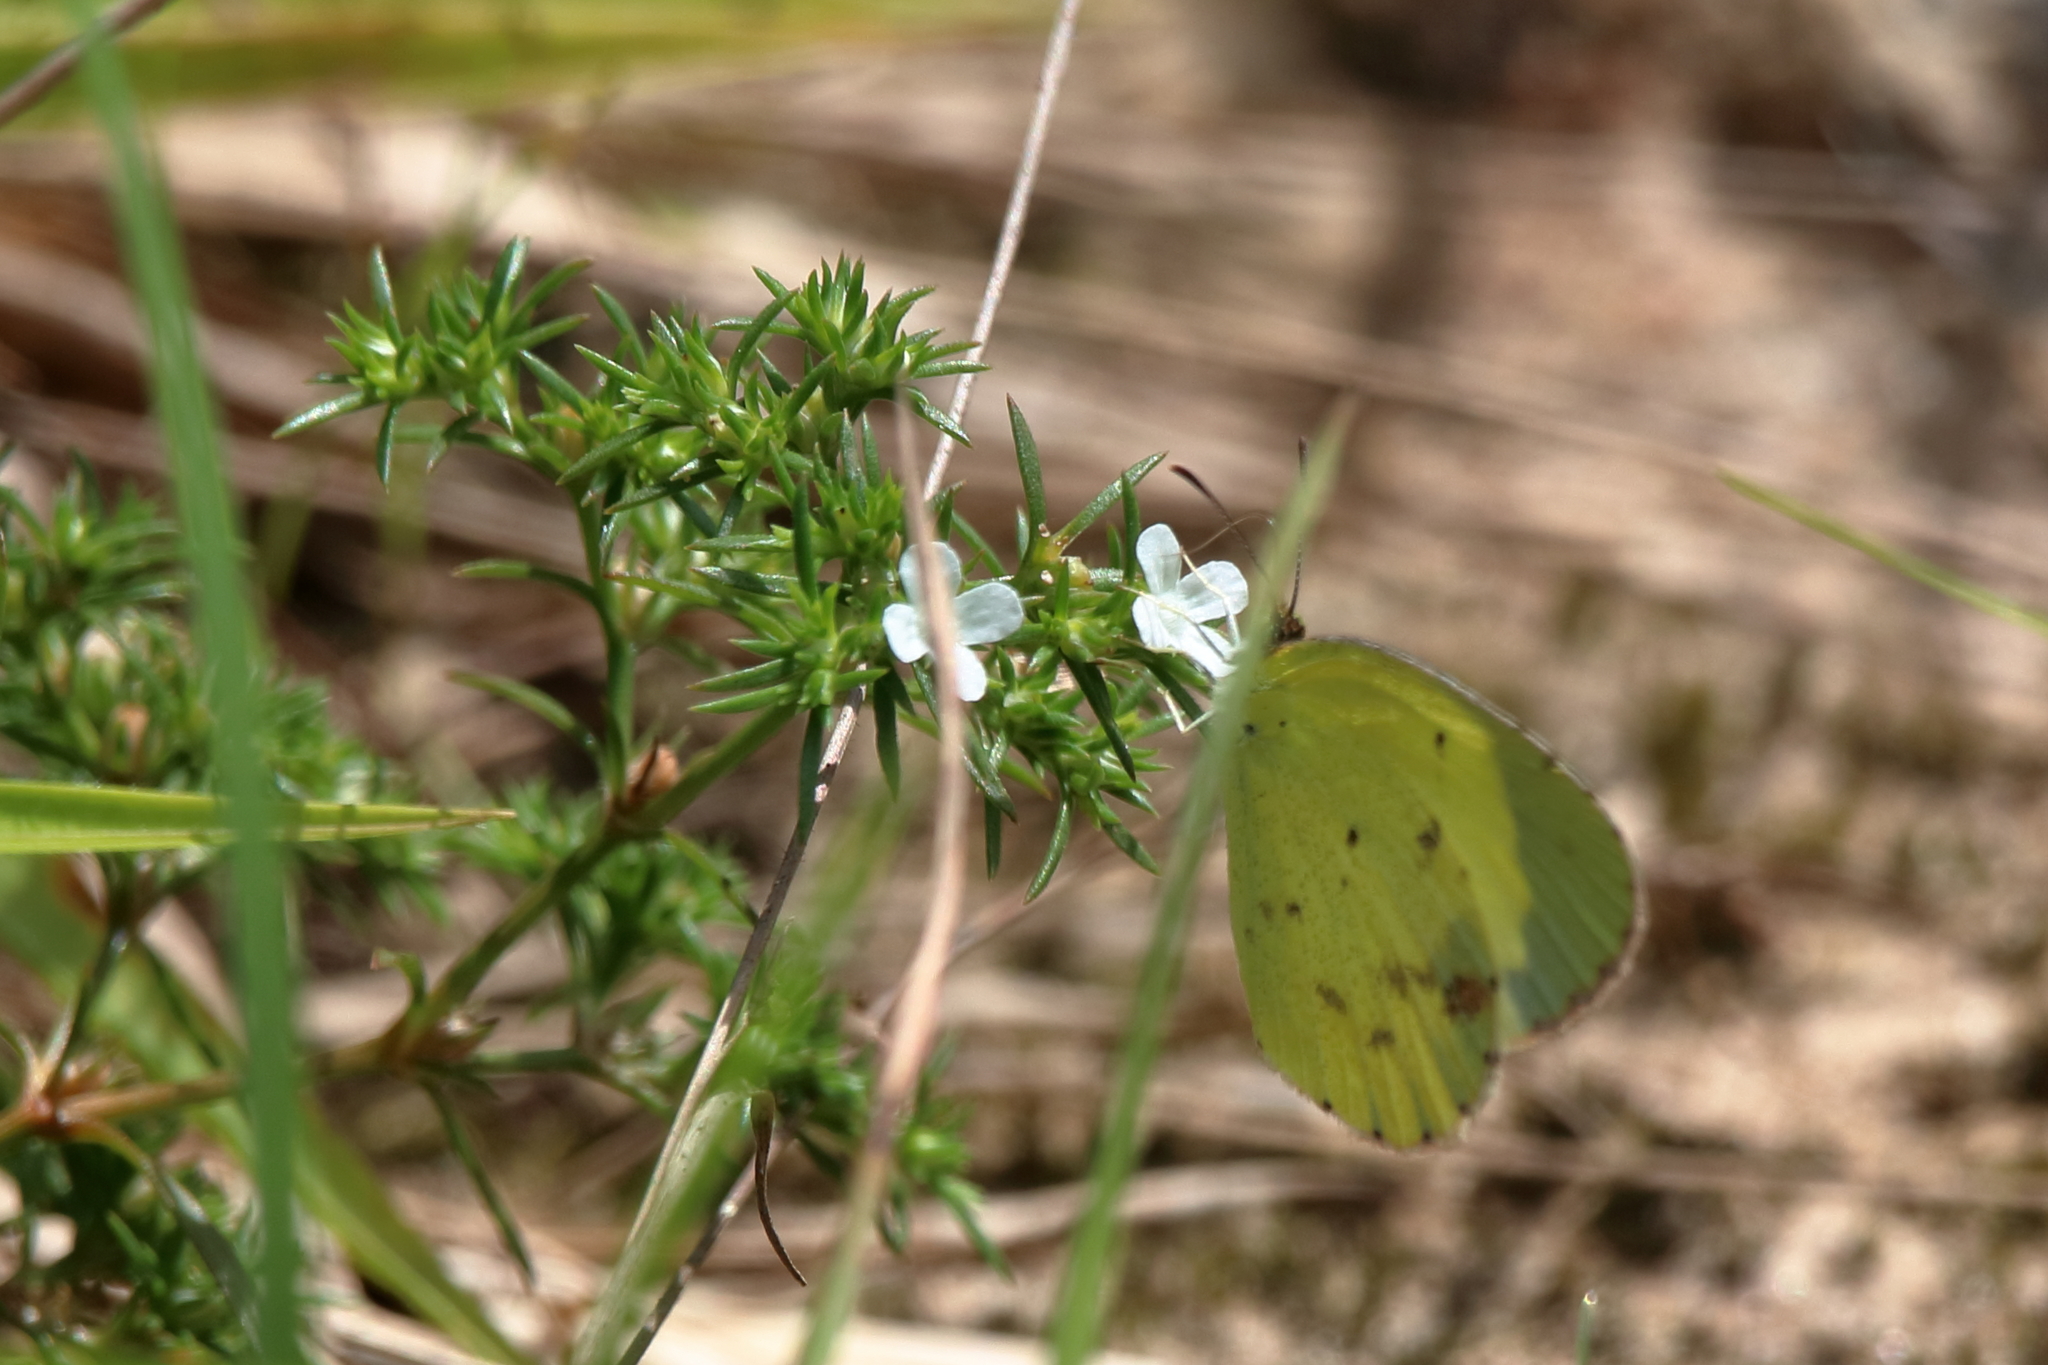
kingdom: Animalia
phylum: Arthropoda
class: Insecta
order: Lepidoptera
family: Pieridae
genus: Pyrisitia
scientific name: Pyrisitia lisa
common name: Little yellow
